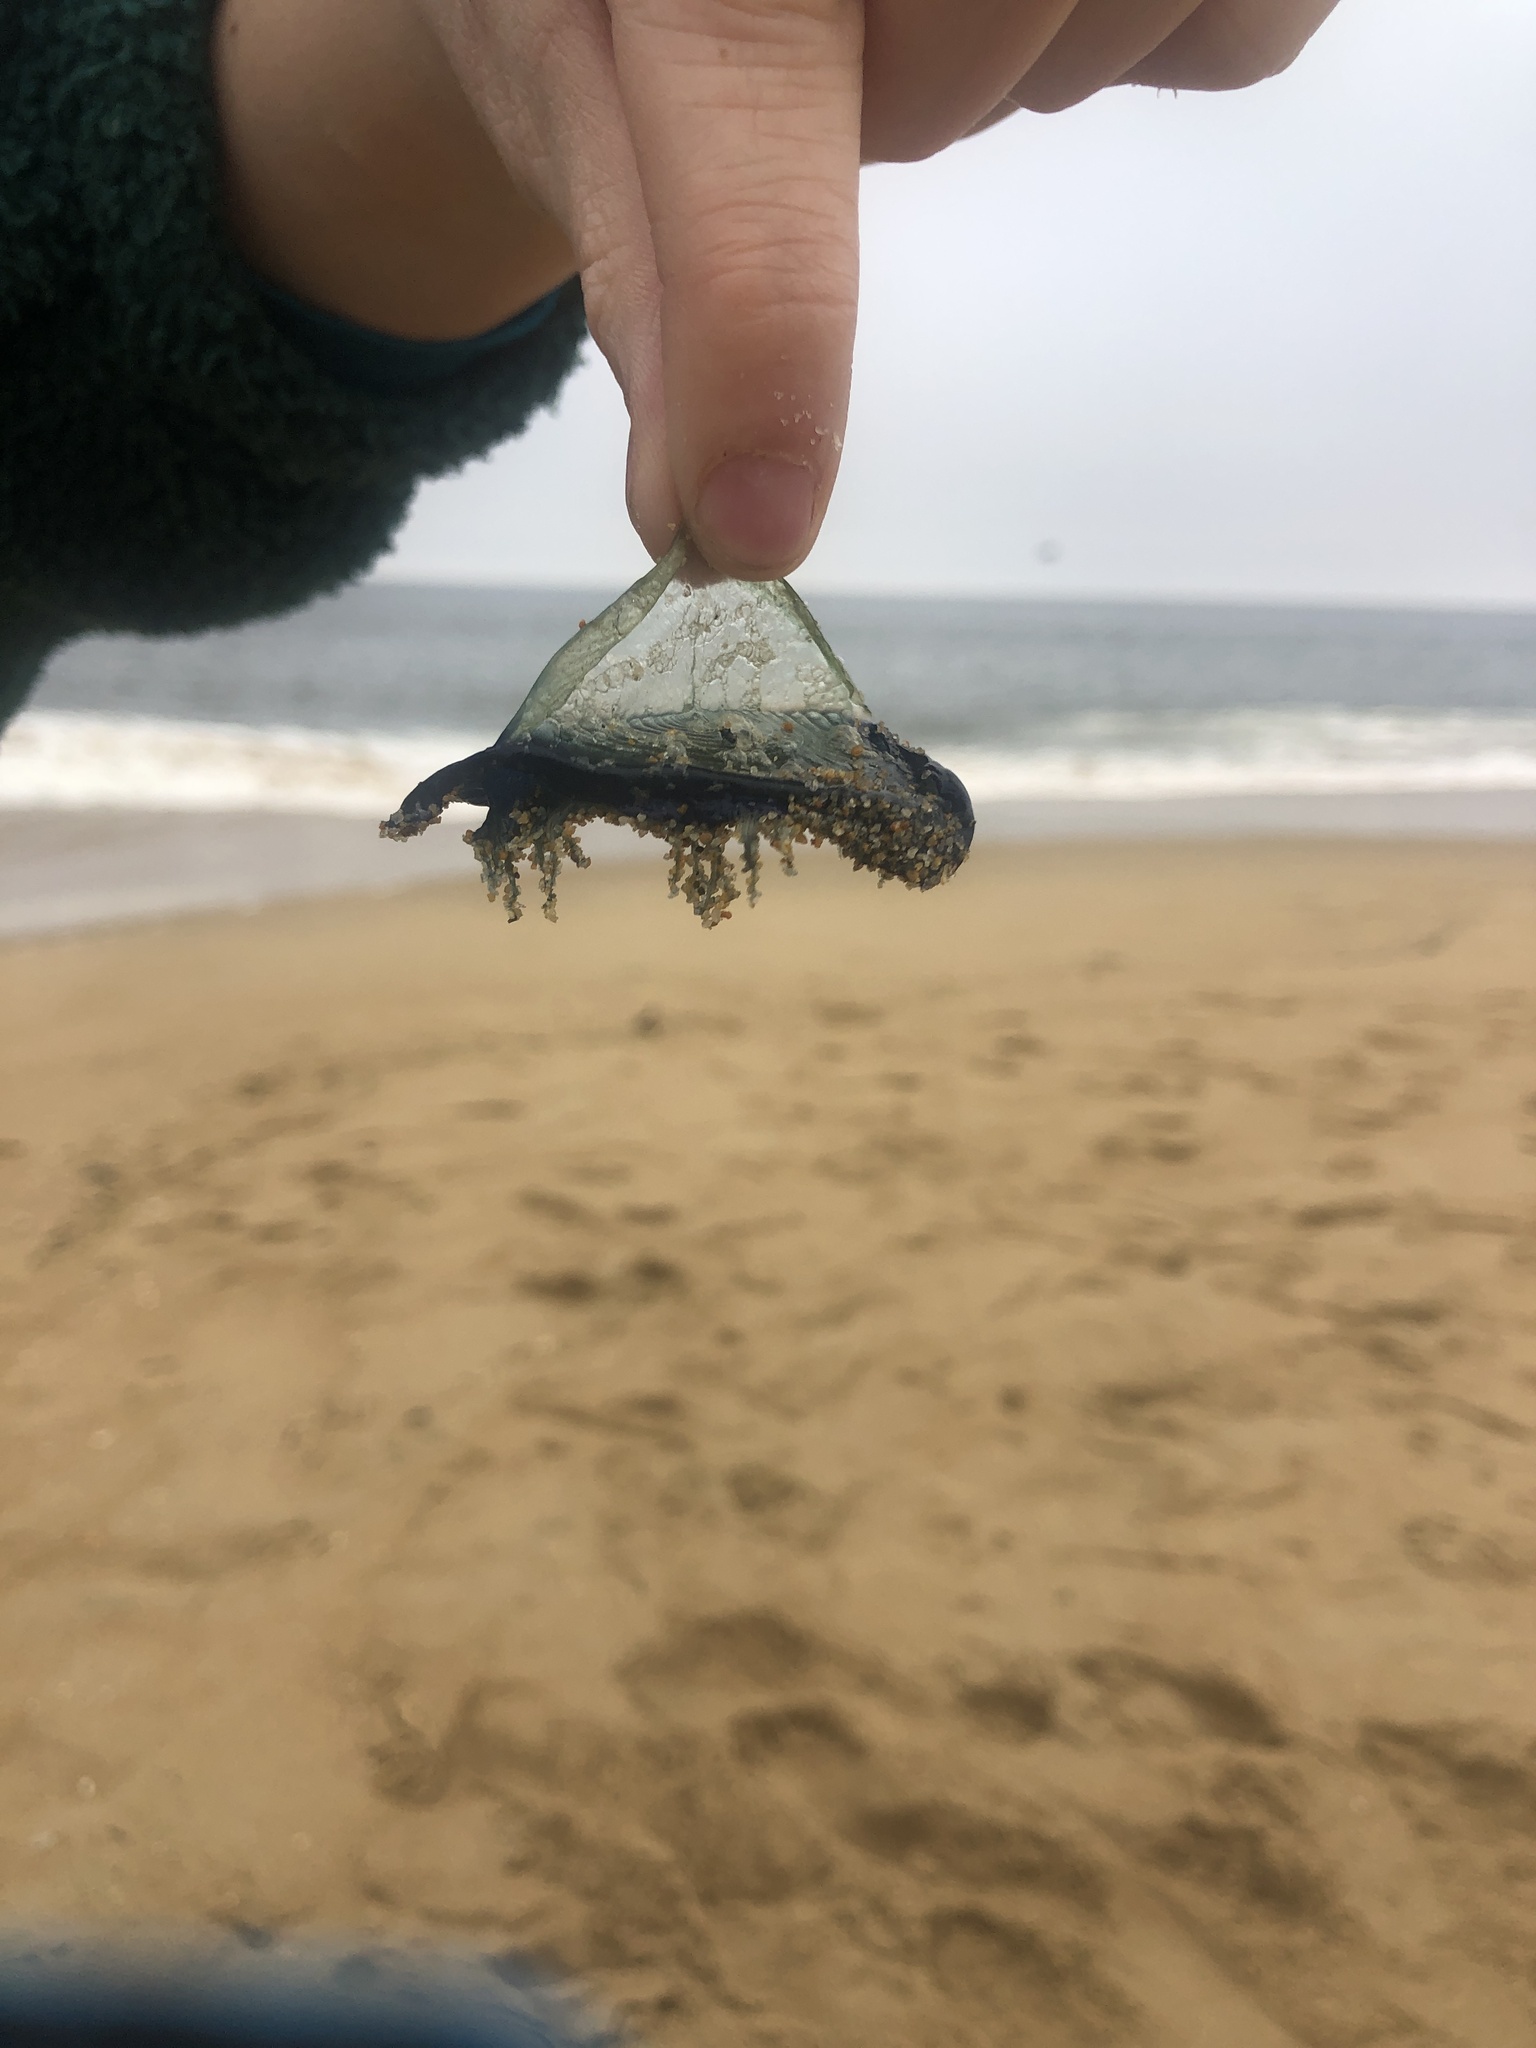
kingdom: Animalia
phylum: Cnidaria
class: Hydrozoa
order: Anthoathecata
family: Porpitidae
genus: Velella
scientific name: Velella velella
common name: By-the-wind-sailor
